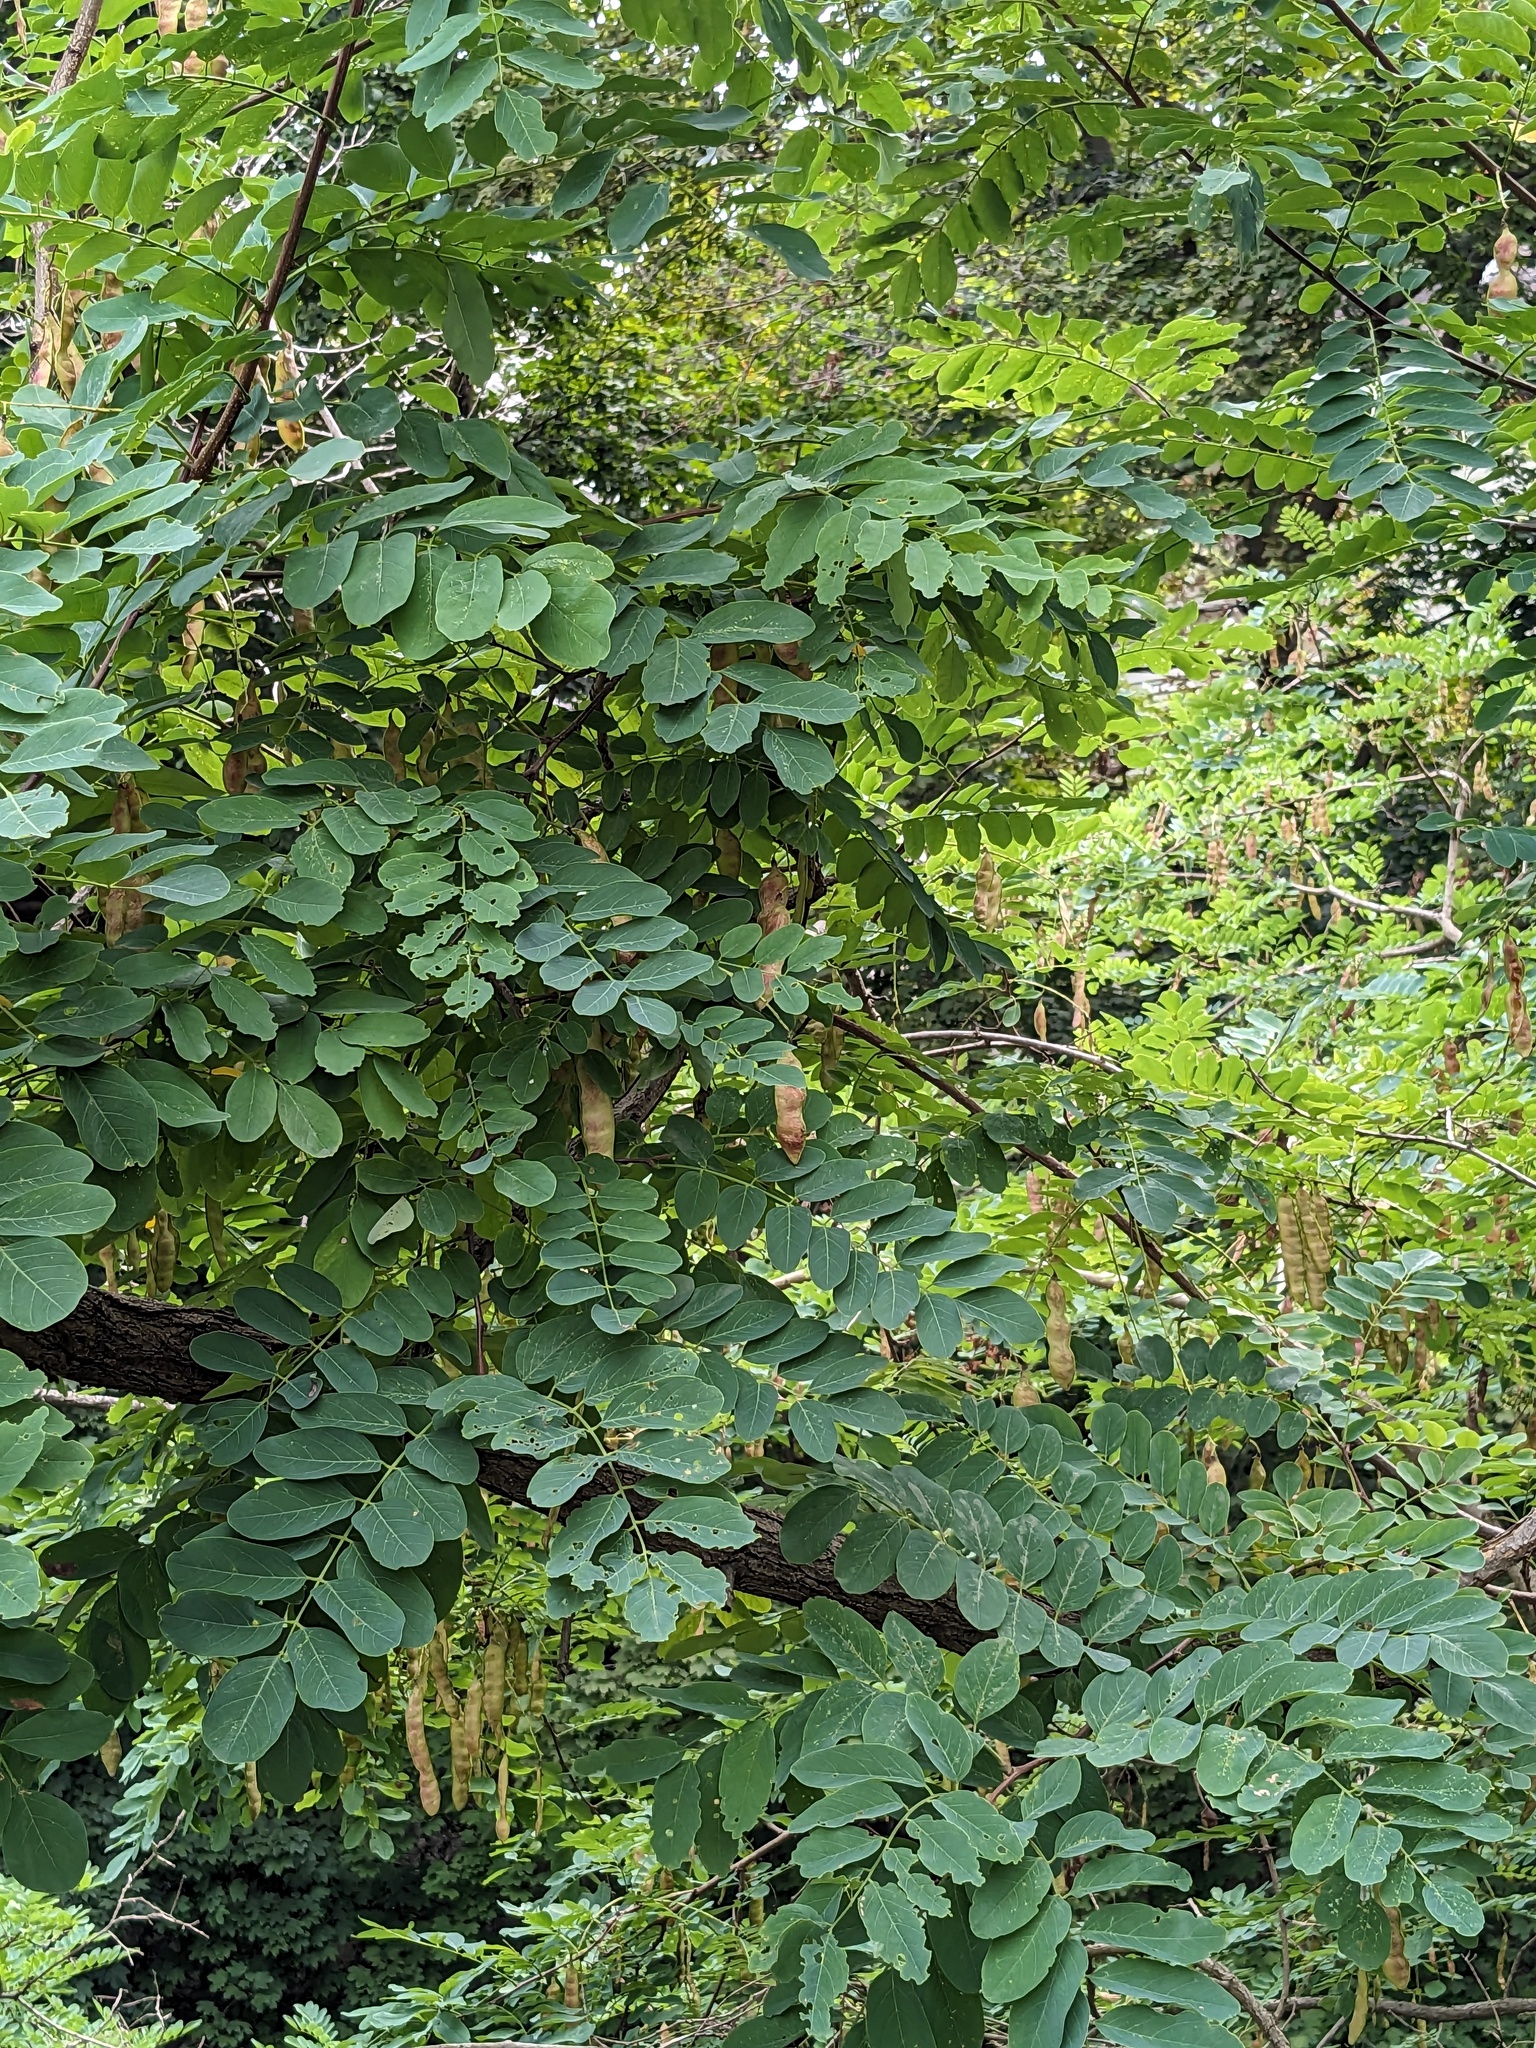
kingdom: Plantae
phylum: Tracheophyta
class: Magnoliopsida
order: Fabales
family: Fabaceae
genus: Robinia
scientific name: Robinia pseudoacacia
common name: Black locust
